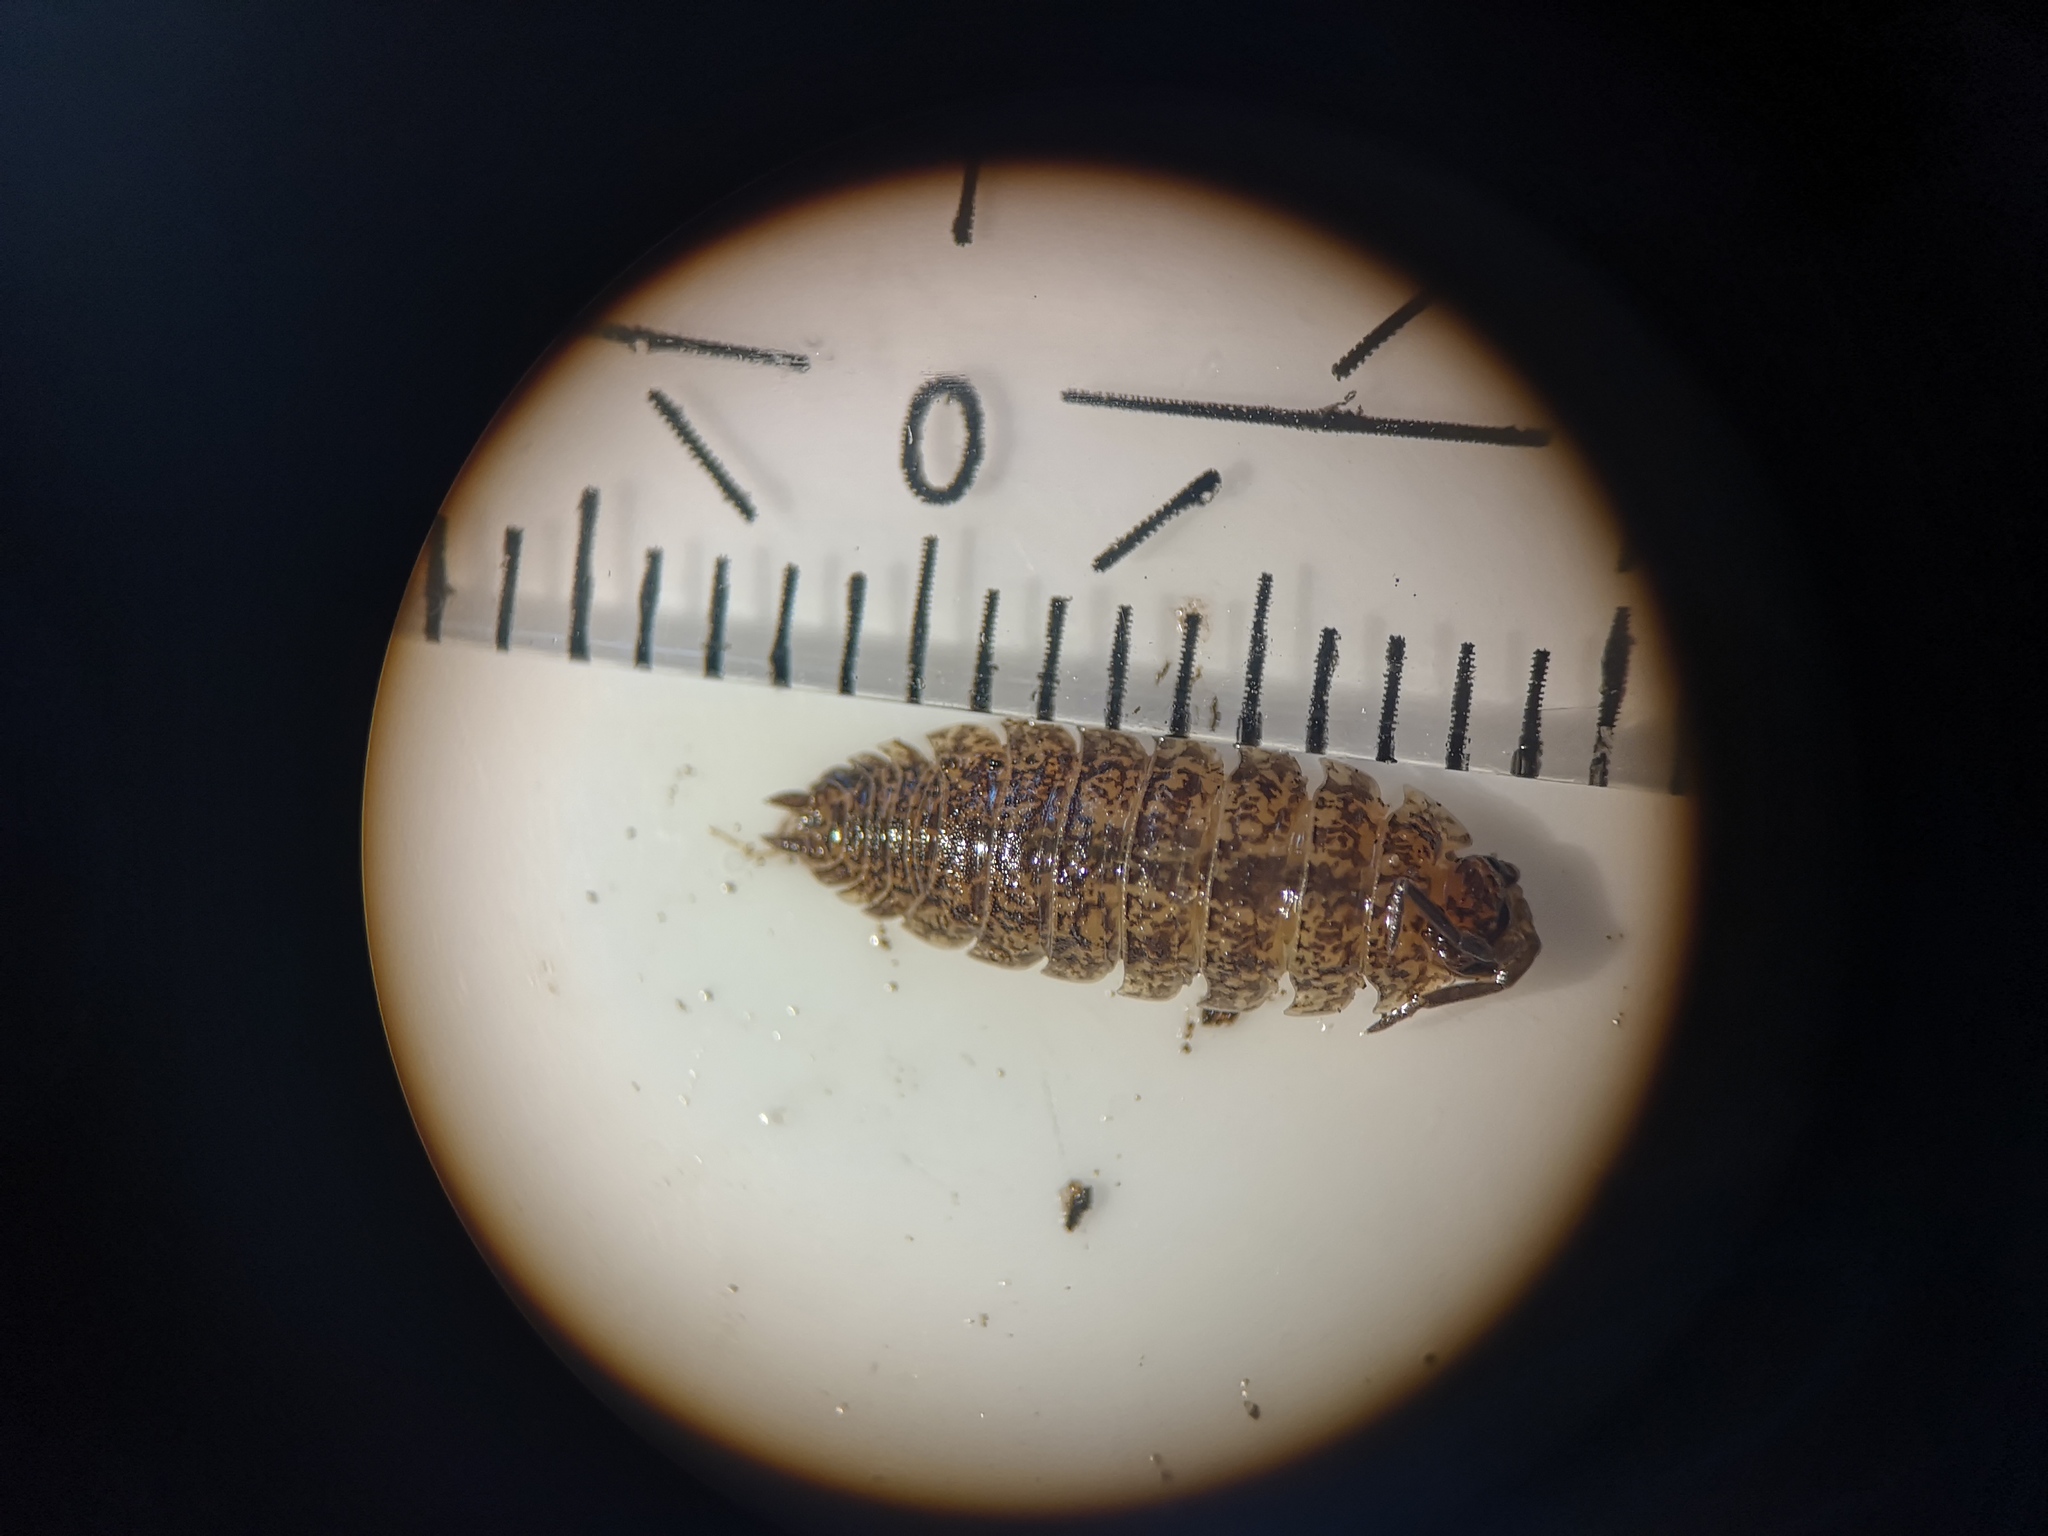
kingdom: Animalia
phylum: Arthropoda
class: Malacostraca
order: Isopoda
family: Porcellionidae
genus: Porcellio
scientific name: Porcellio scaber
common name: Common rough woodlouse
